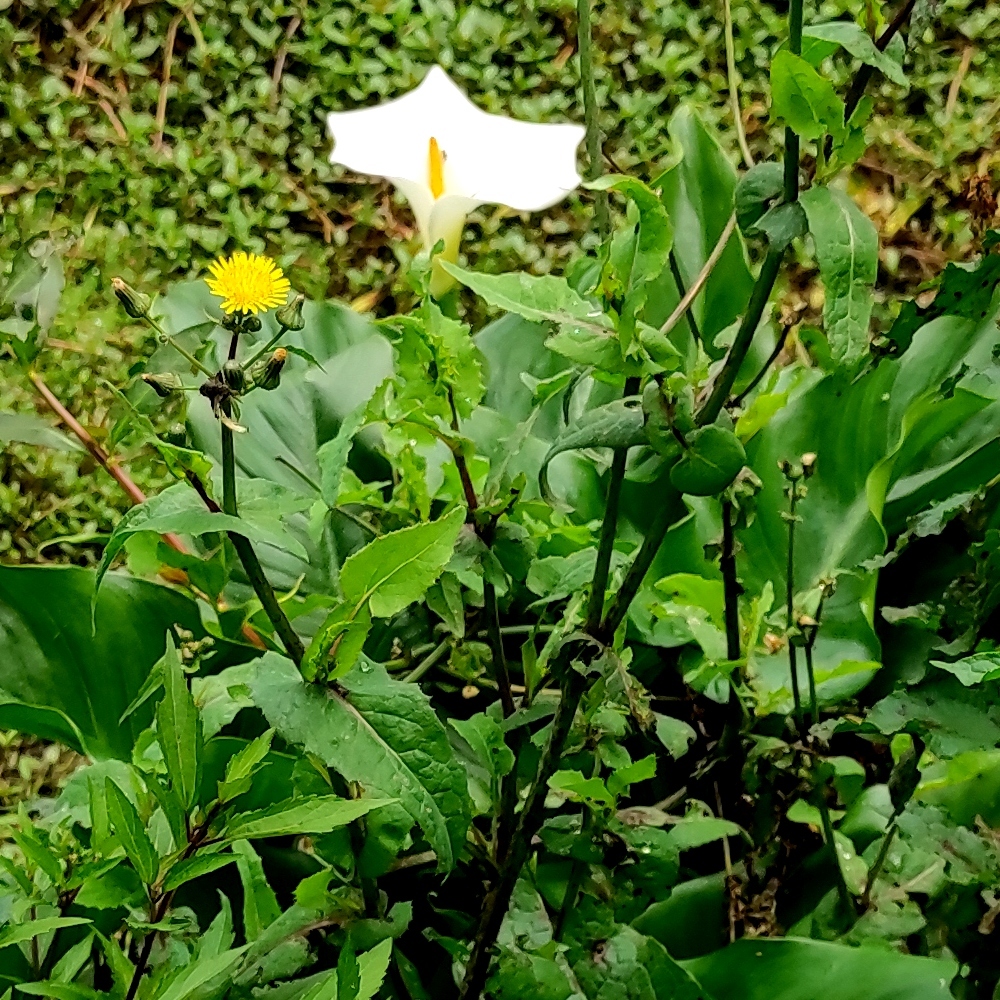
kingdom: Plantae
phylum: Tracheophyta
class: Magnoliopsida
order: Asterales
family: Asteraceae
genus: Sonchus
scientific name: Sonchus oleraceus
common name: Common sowthistle
